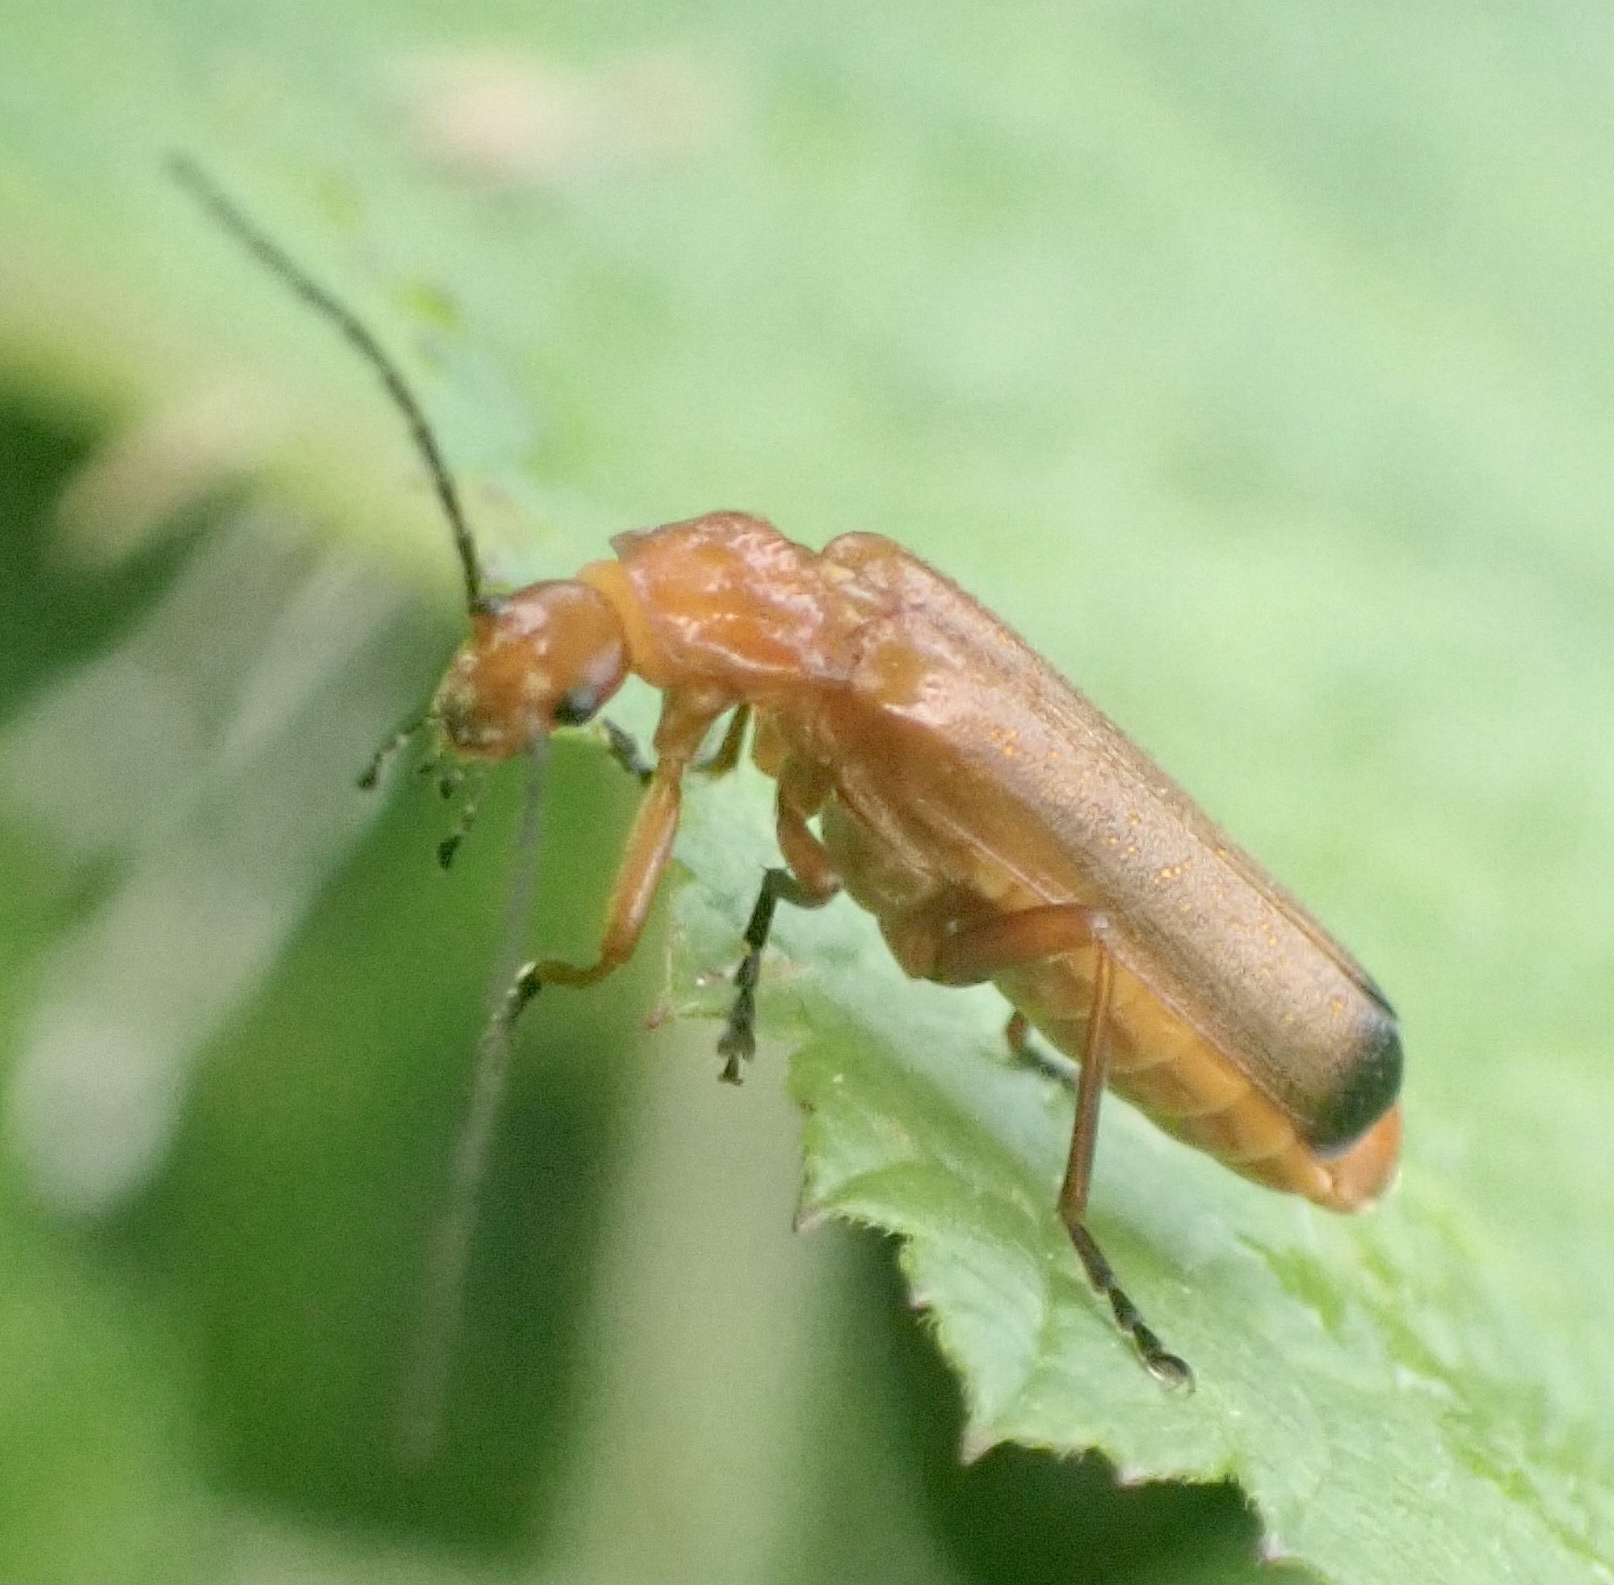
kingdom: Animalia
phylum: Arthropoda
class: Insecta
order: Coleoptera
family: Cantharidae
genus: Rhagonycha
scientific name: Rhagonycha fulva
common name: Common red soldier beetle
